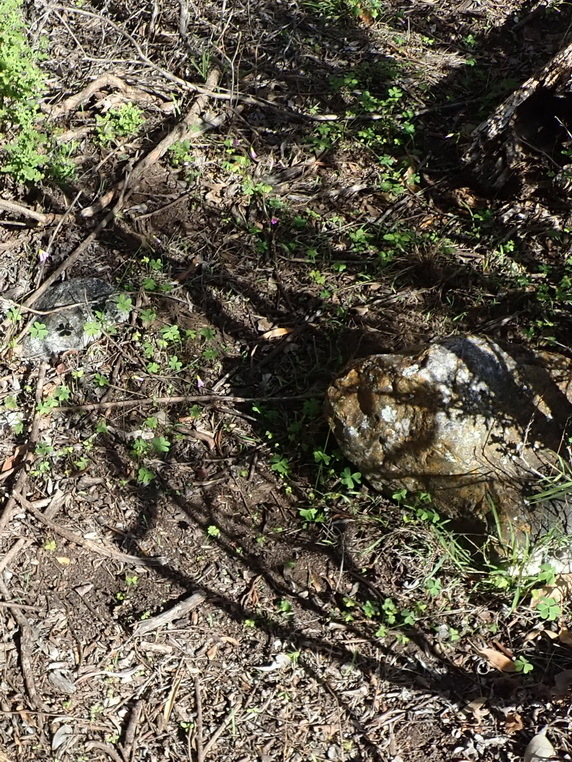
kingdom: Plantae
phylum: Tracheophyta
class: Magnoliopsida
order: Oxalidales
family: Oxalidaceae
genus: Oxalis
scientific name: Oxalis stellata
